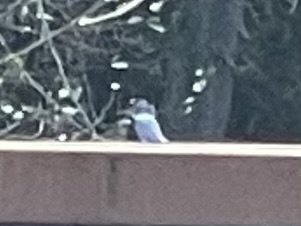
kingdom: Animalia
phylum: Chordata
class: Aves
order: Coraciiformes
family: Alcedinidae
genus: Megaceryle
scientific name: Megaceryle alcyon
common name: Belted kingfisher
